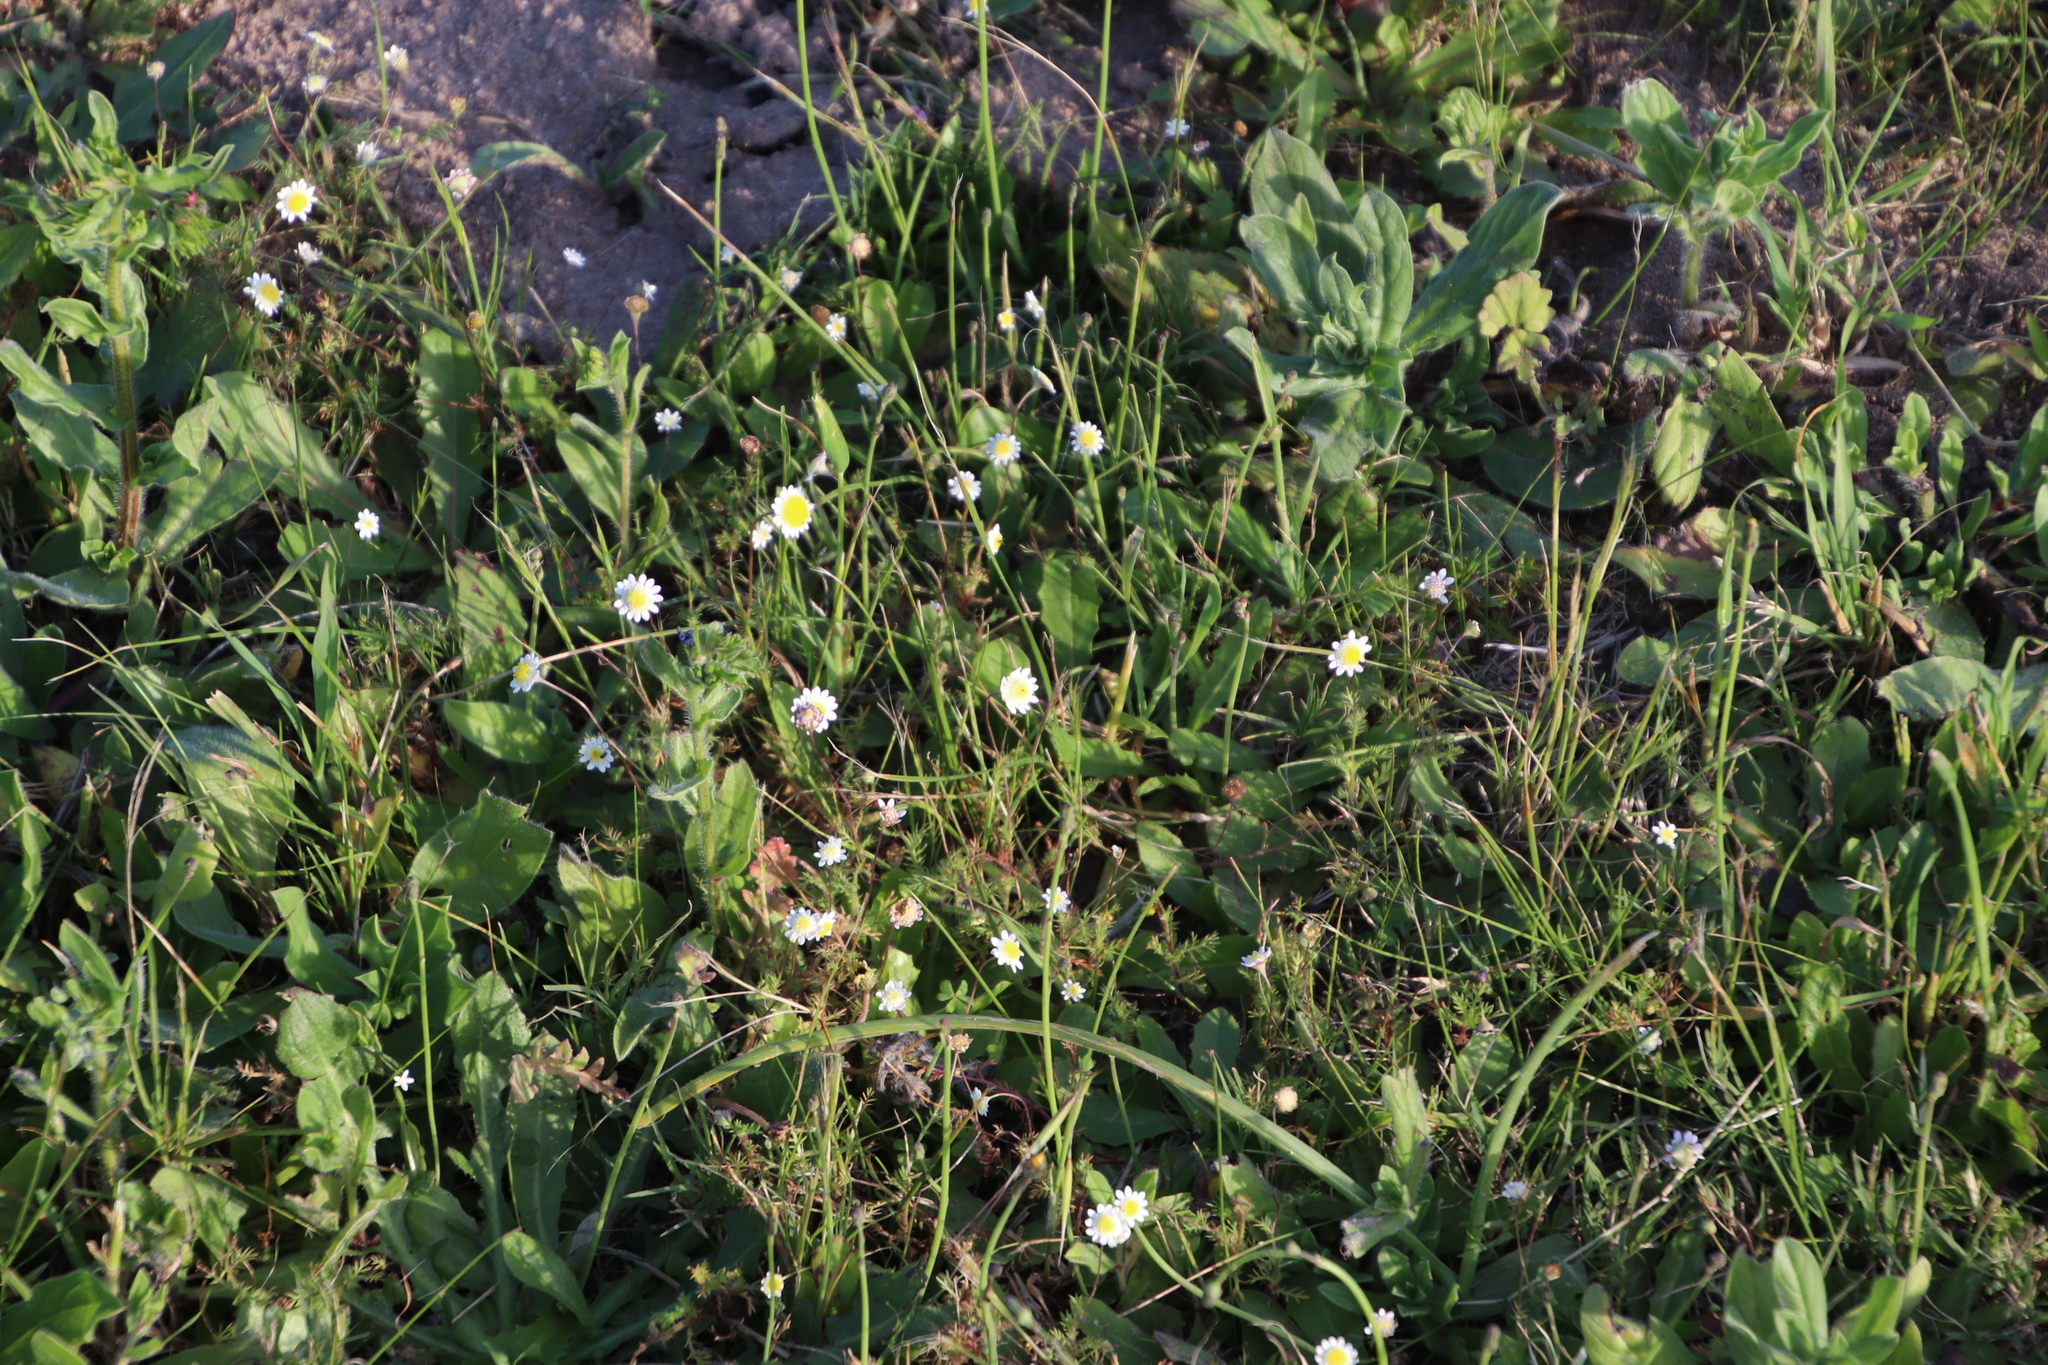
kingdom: Plantae
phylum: Tracheophyta
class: Magnoliopsida
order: Asterales
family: Asteraceae
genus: Cotula
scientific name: Cotula turbinata
